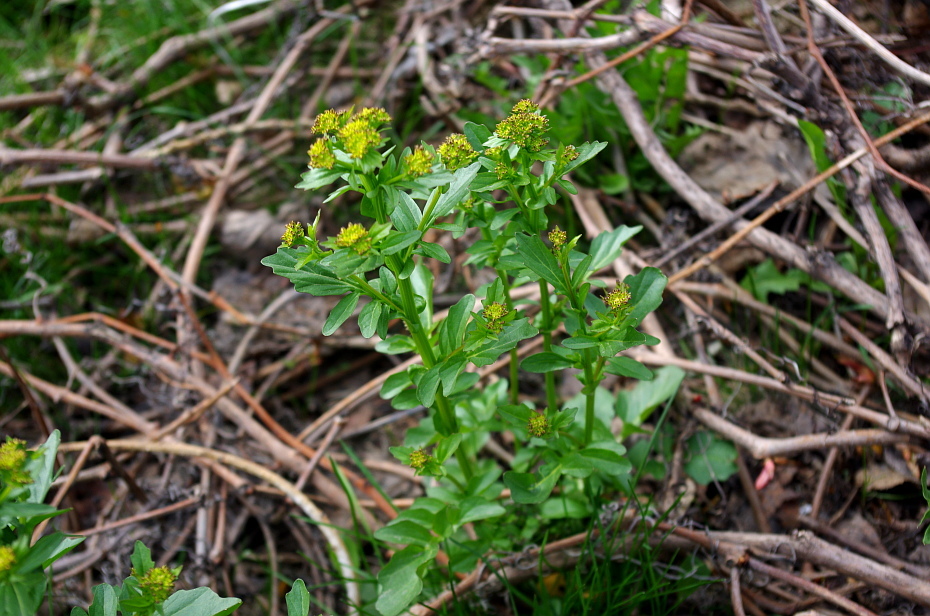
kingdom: Plantae
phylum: Tracheophyta
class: Magnoliopsida
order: Brassicales
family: Brassicaceae
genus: Barbarea
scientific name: Barbarea vulgaris
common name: Cressy-greens
